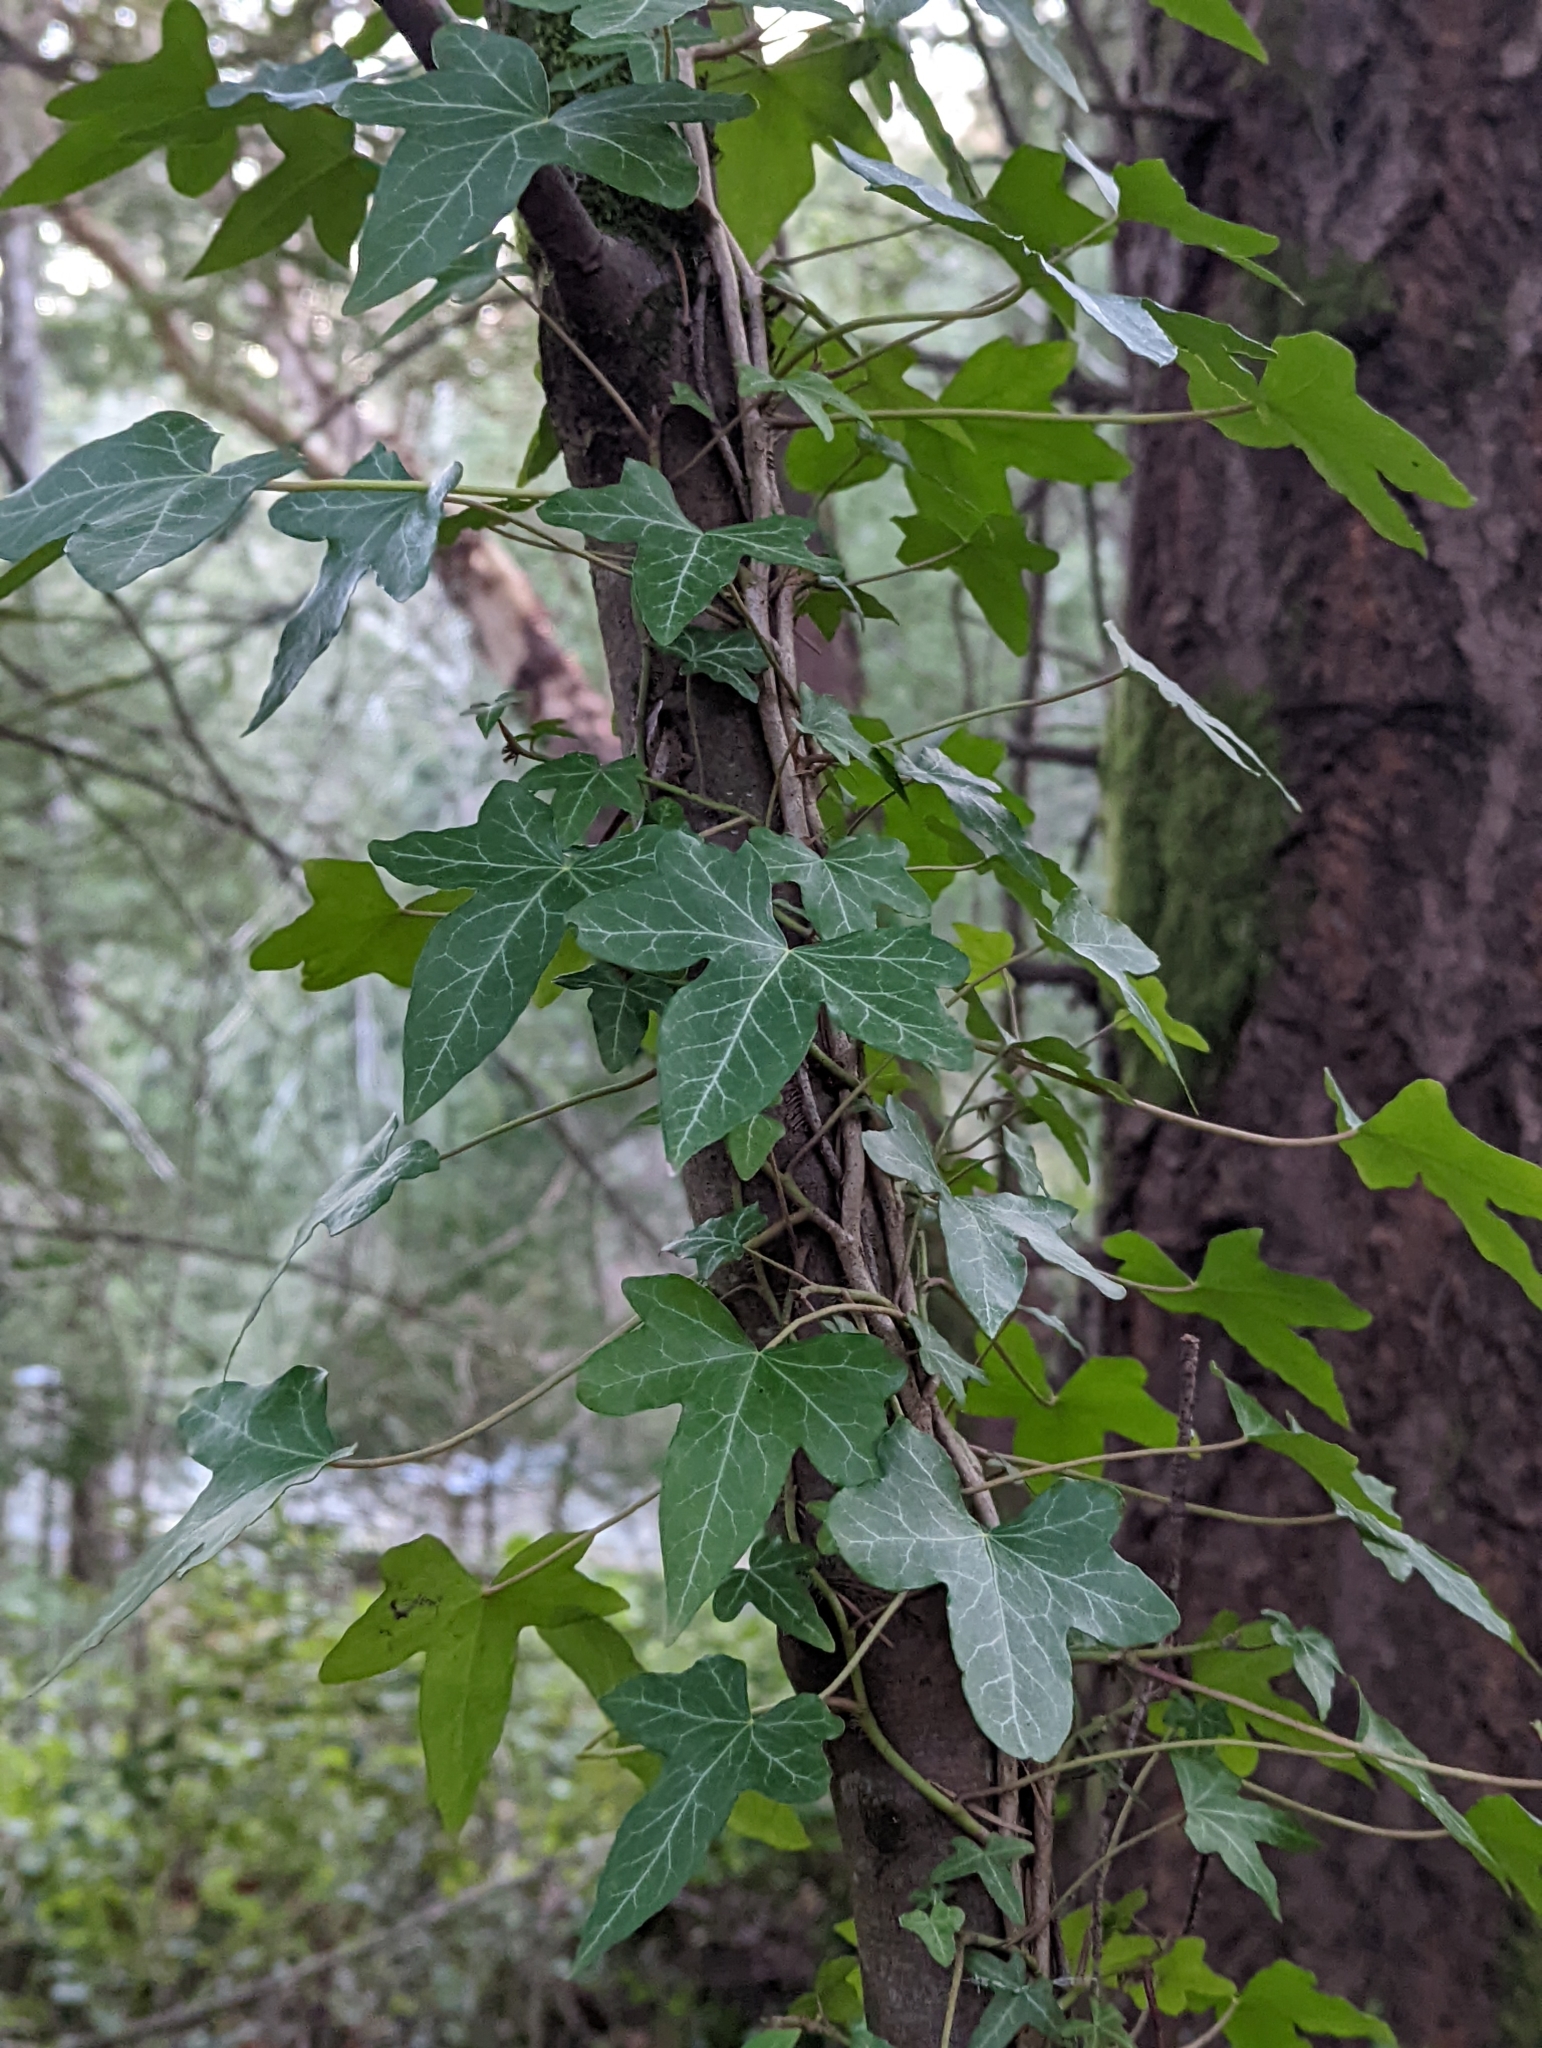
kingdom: Plantae
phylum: Tracheophyta
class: Magnoliopsida
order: Apiales
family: Araliaceae
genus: Hedera
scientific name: Hedera helix
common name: Ivy
